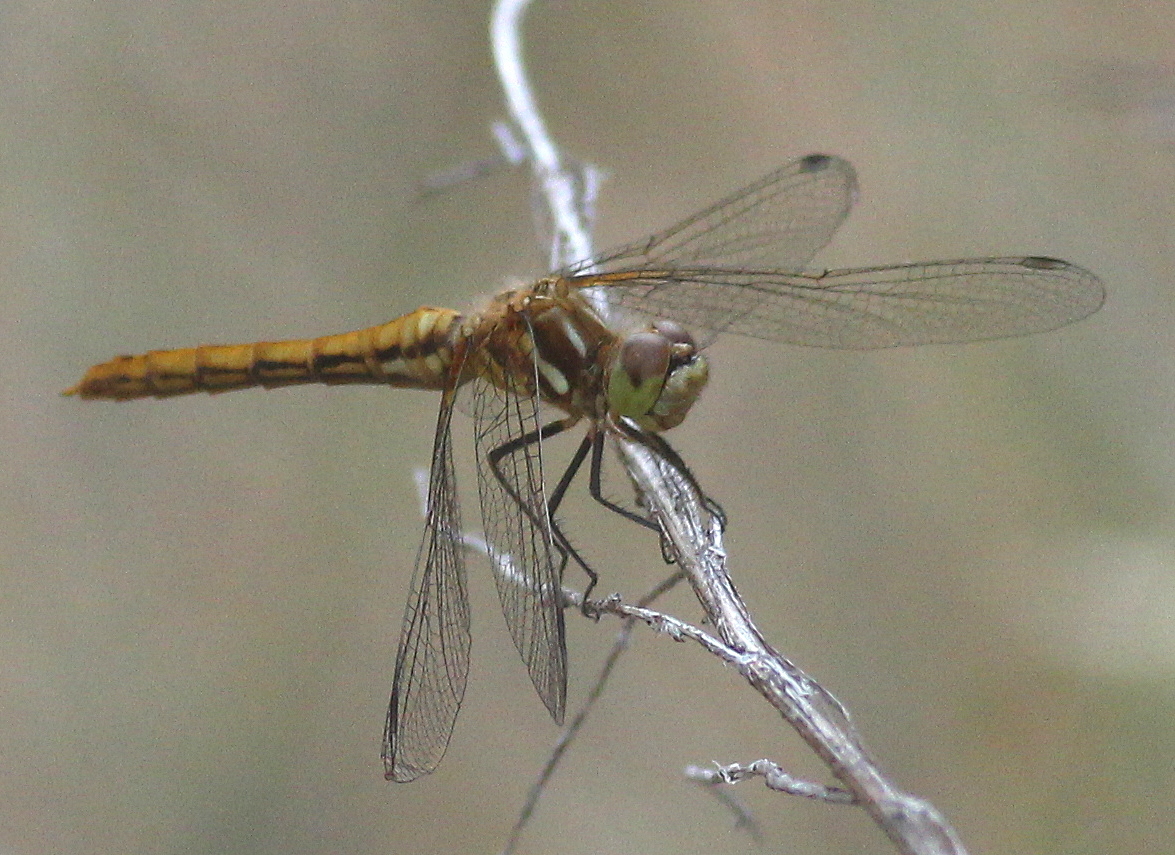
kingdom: Animalia
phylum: Arthropoda
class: Insecta
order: Odonata
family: Libellulidae
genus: Sympetrum
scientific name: Sympetrum pallipes
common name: Striped meadowhawk
